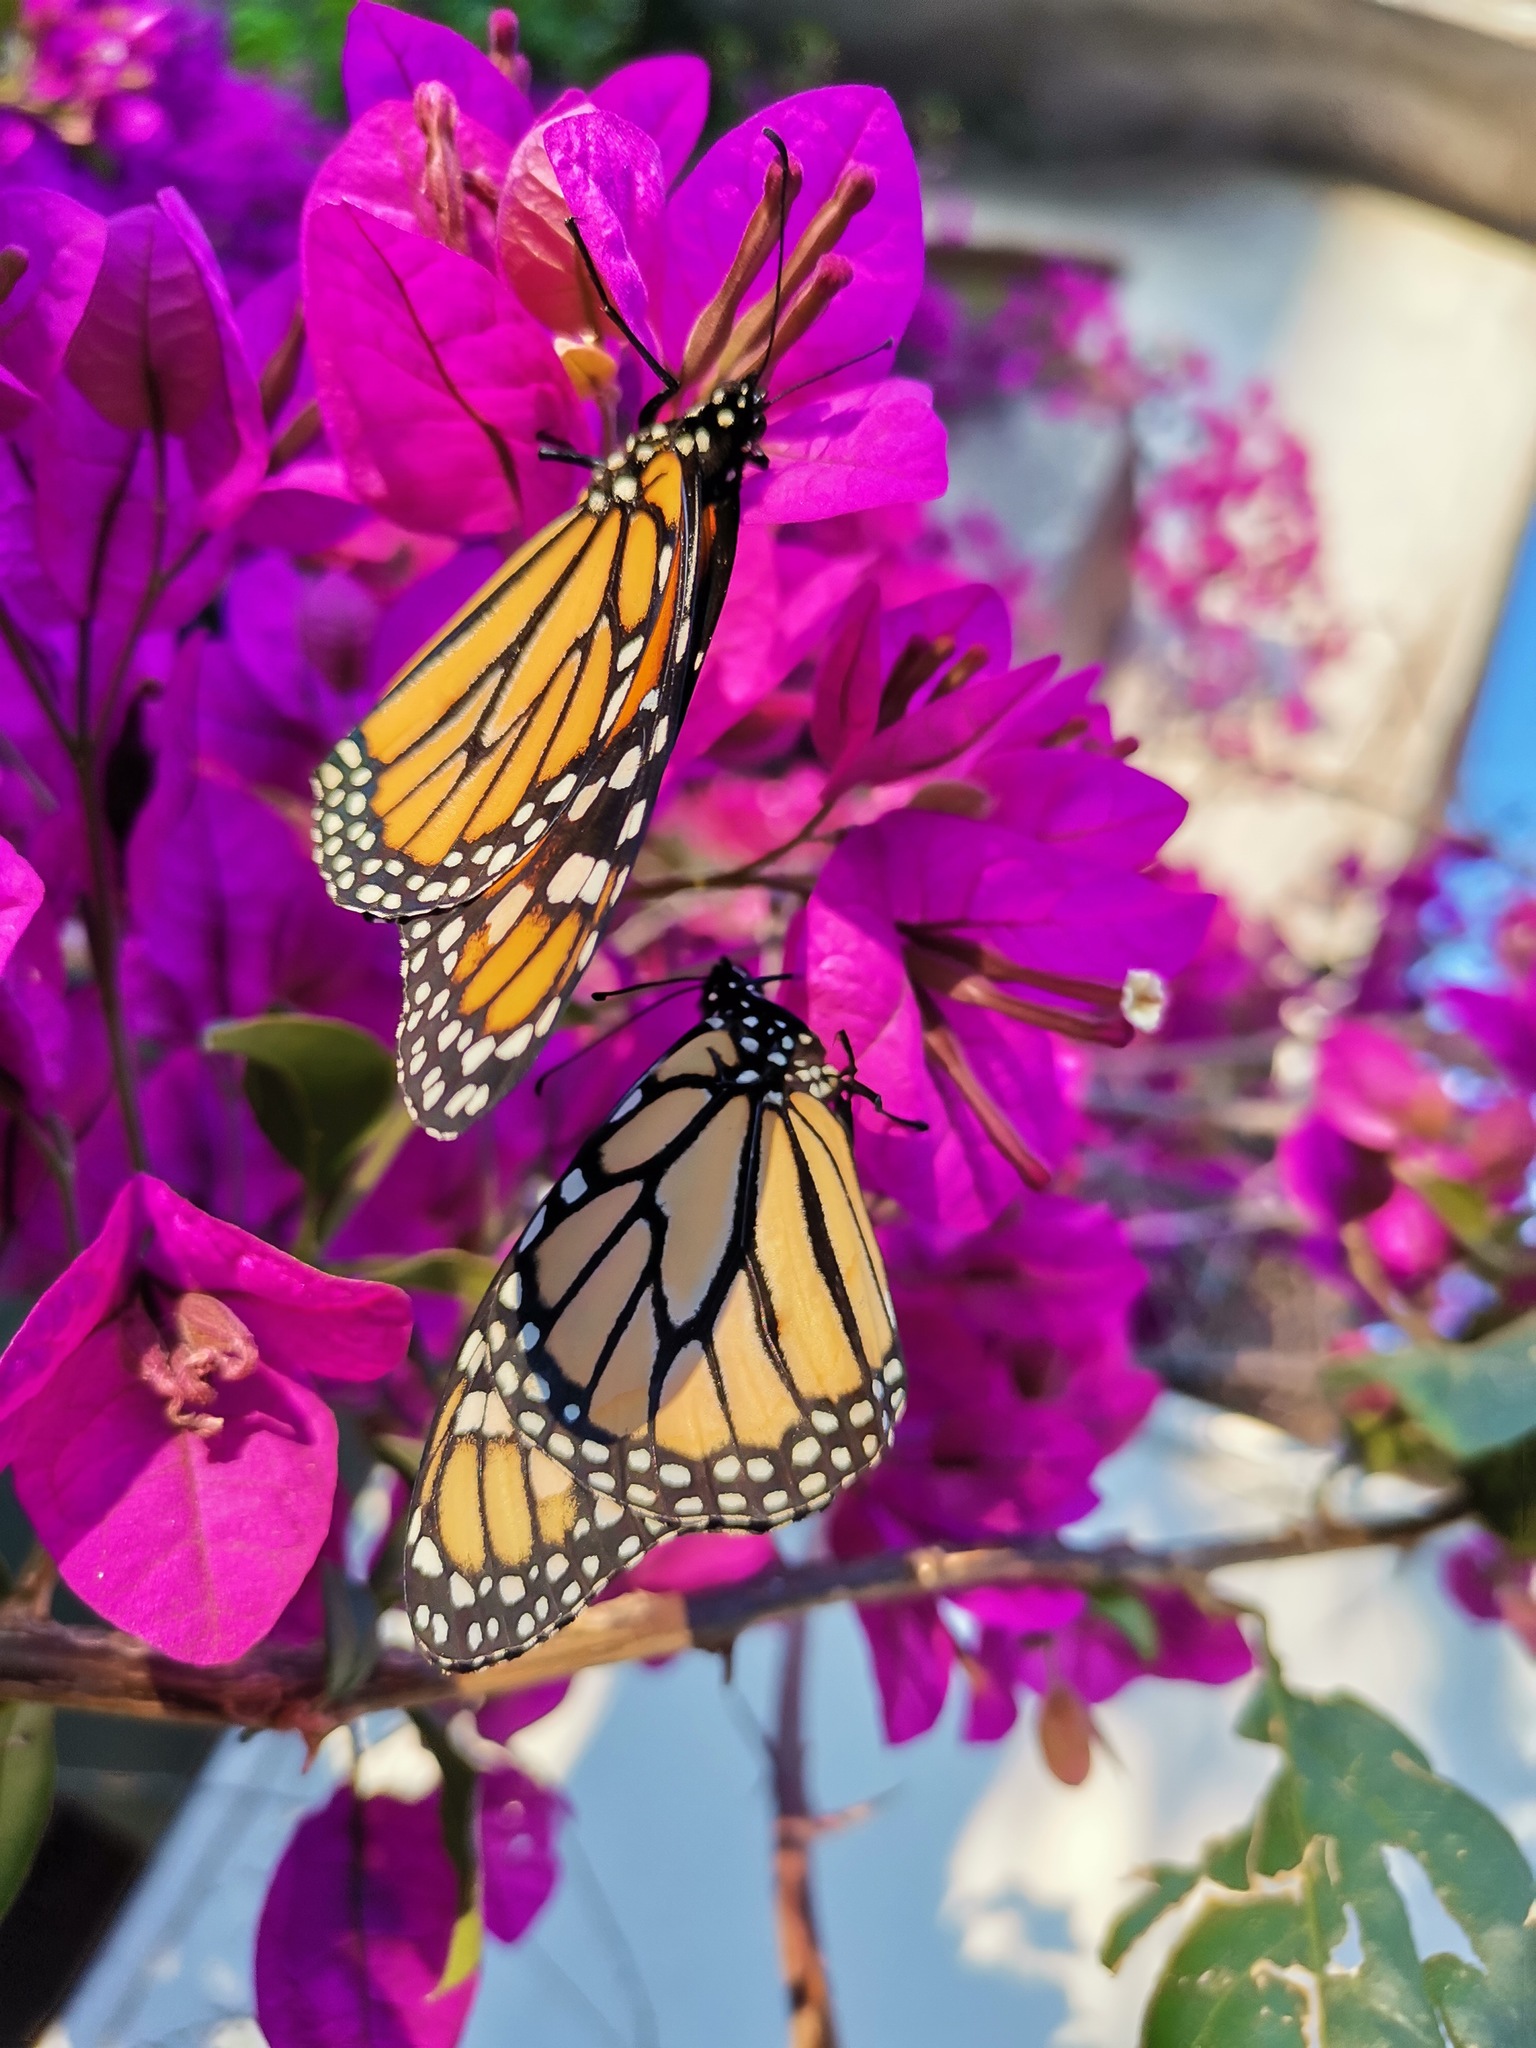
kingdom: Animalia
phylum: Arthropoda
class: Insecta
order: Lepidoptera
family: Nymphalidae
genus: Danaus
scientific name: Danaus plexippus
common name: Monarch
